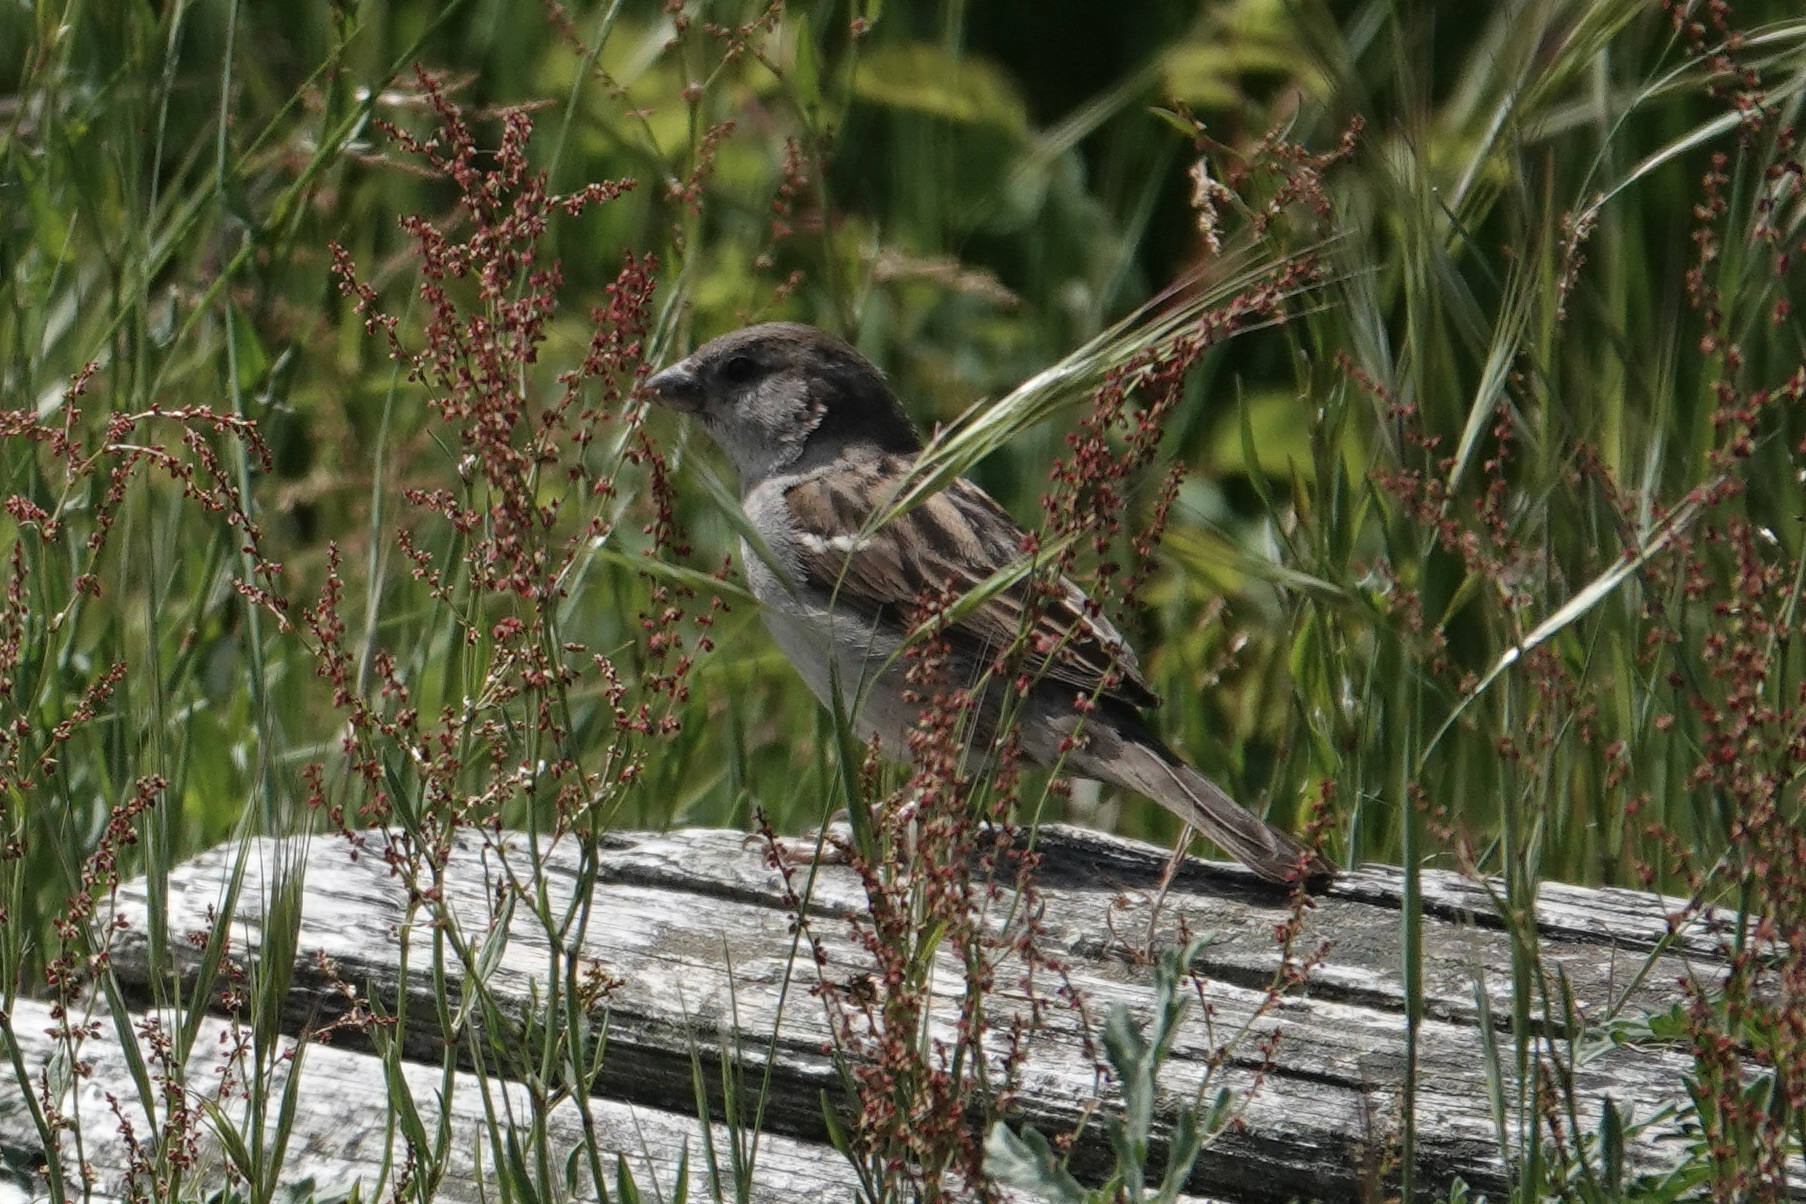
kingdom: Animalia
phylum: Chordata
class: Aves
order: Passeriformes
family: Passeridae
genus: Passer
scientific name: Passer domesticus
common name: House sparrow
